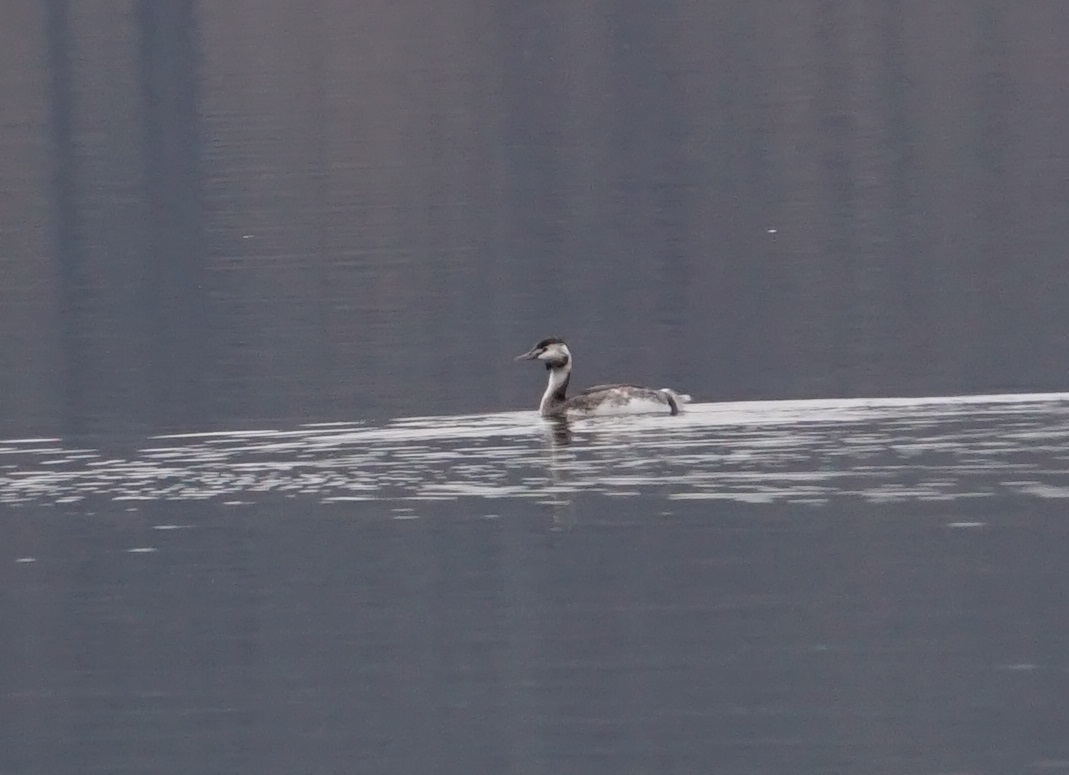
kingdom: Animalia
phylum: Chordata
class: Aves
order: Podicipediformes
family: Podicipedidae
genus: Podiceps
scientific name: Podiceps cristatus
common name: Great crested grebe
